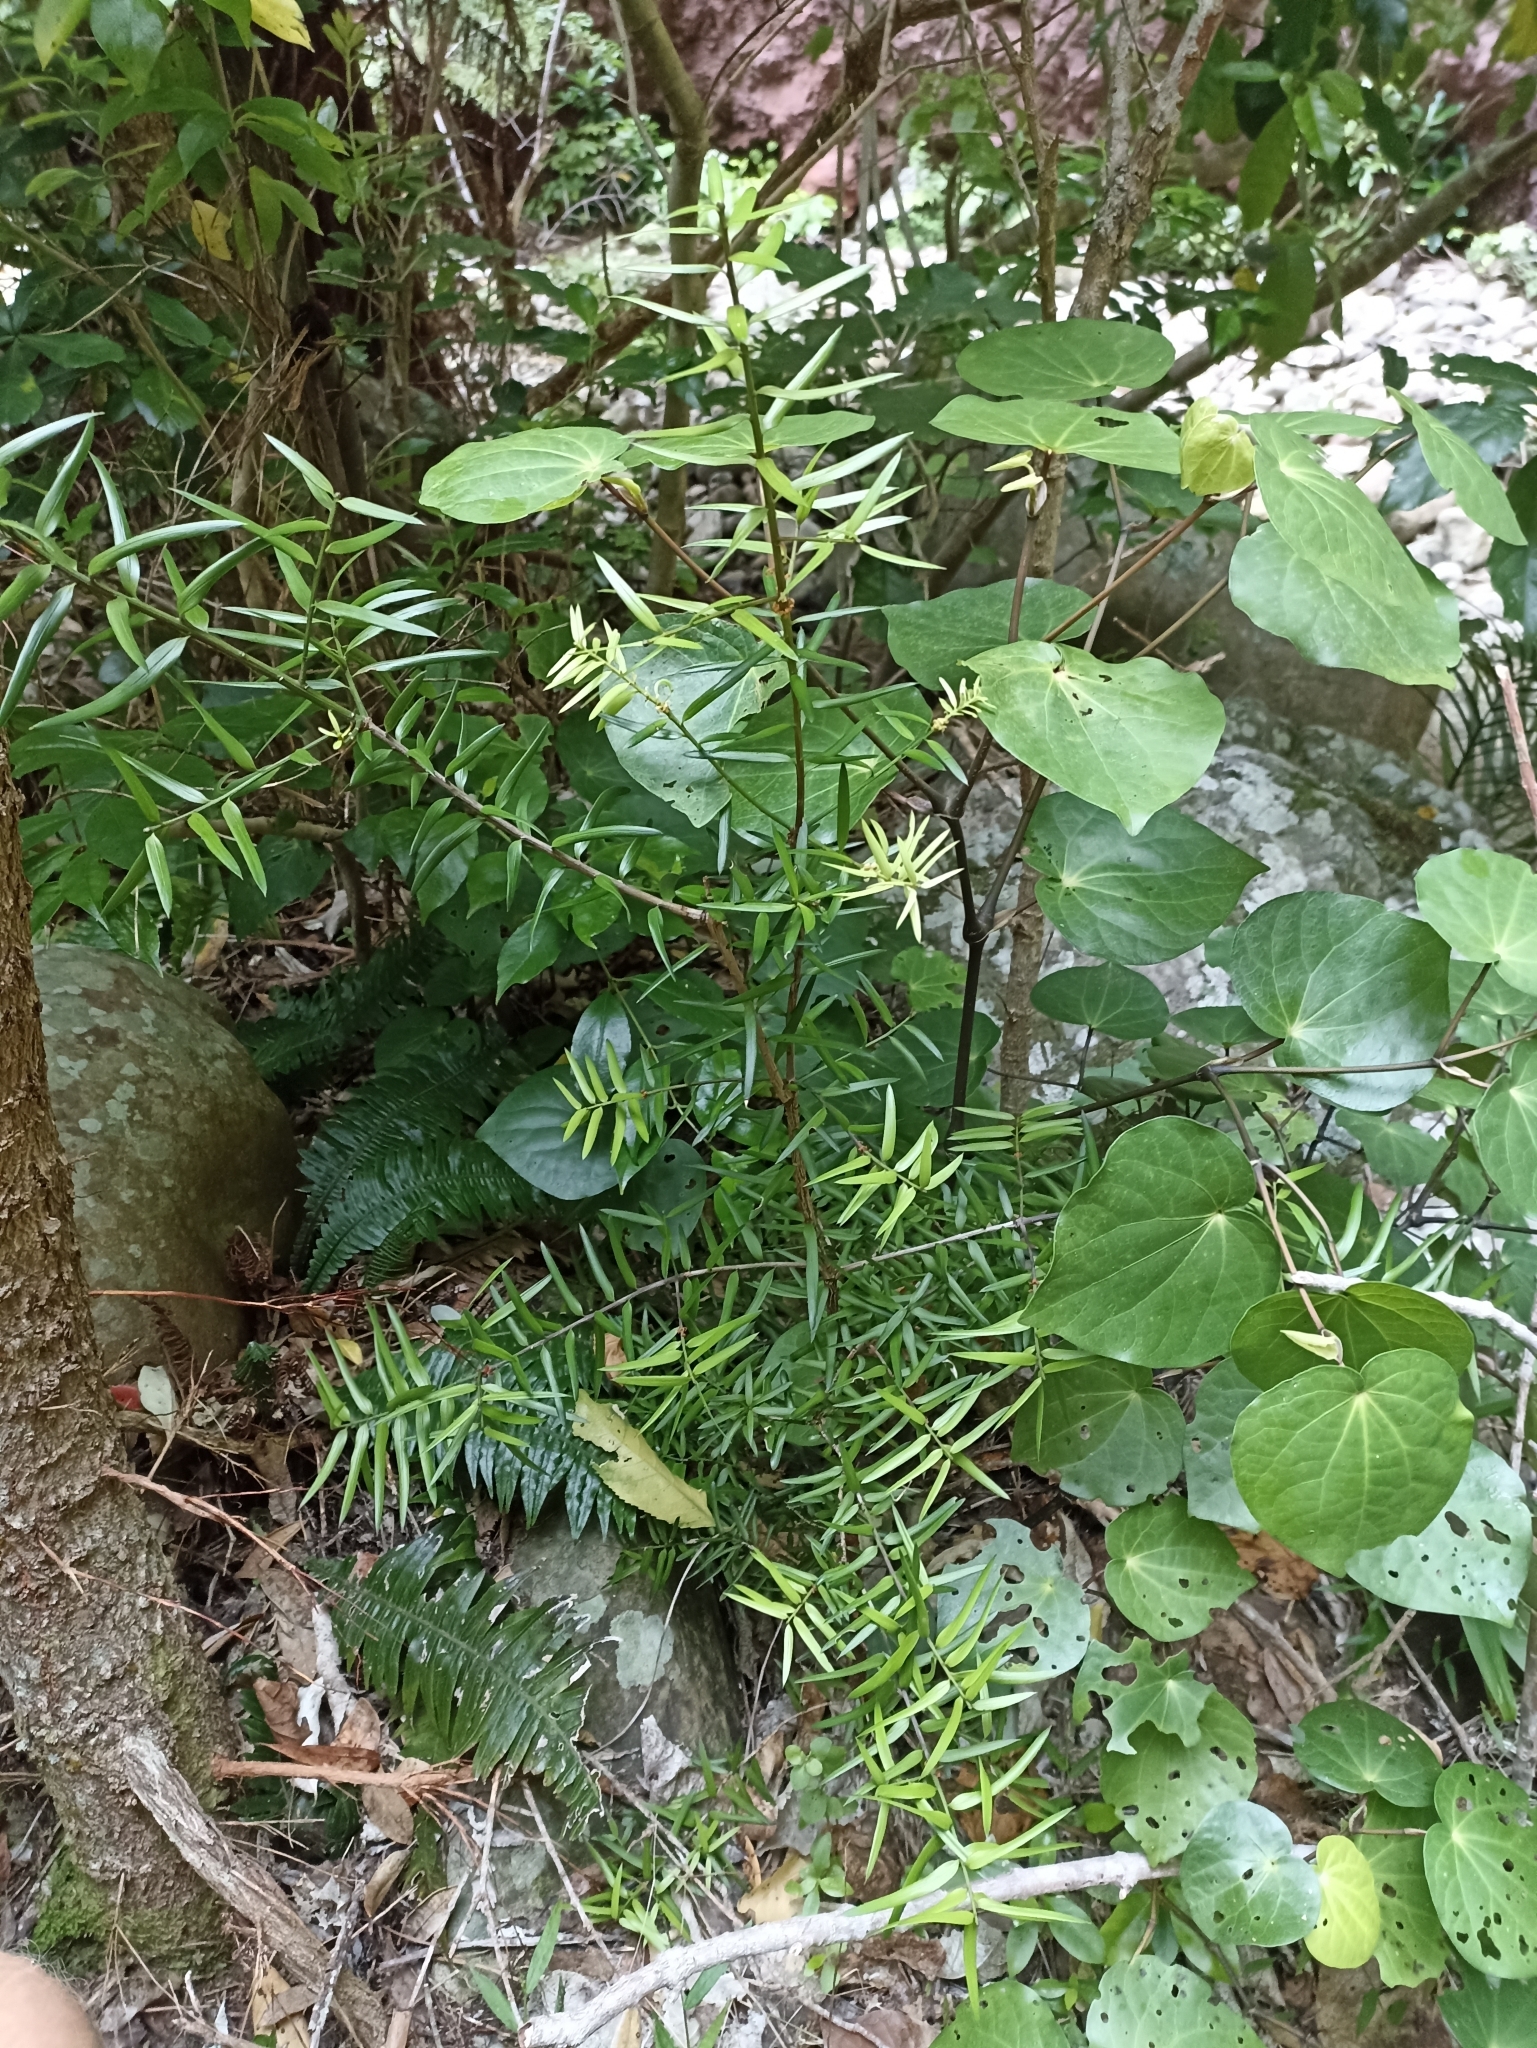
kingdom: Plantae
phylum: Tracheophyta
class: Pinopsida
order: Pinales
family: Podocarpaceae
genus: Podocarpus
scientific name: Podocarpus laetus
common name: Hall's totara
